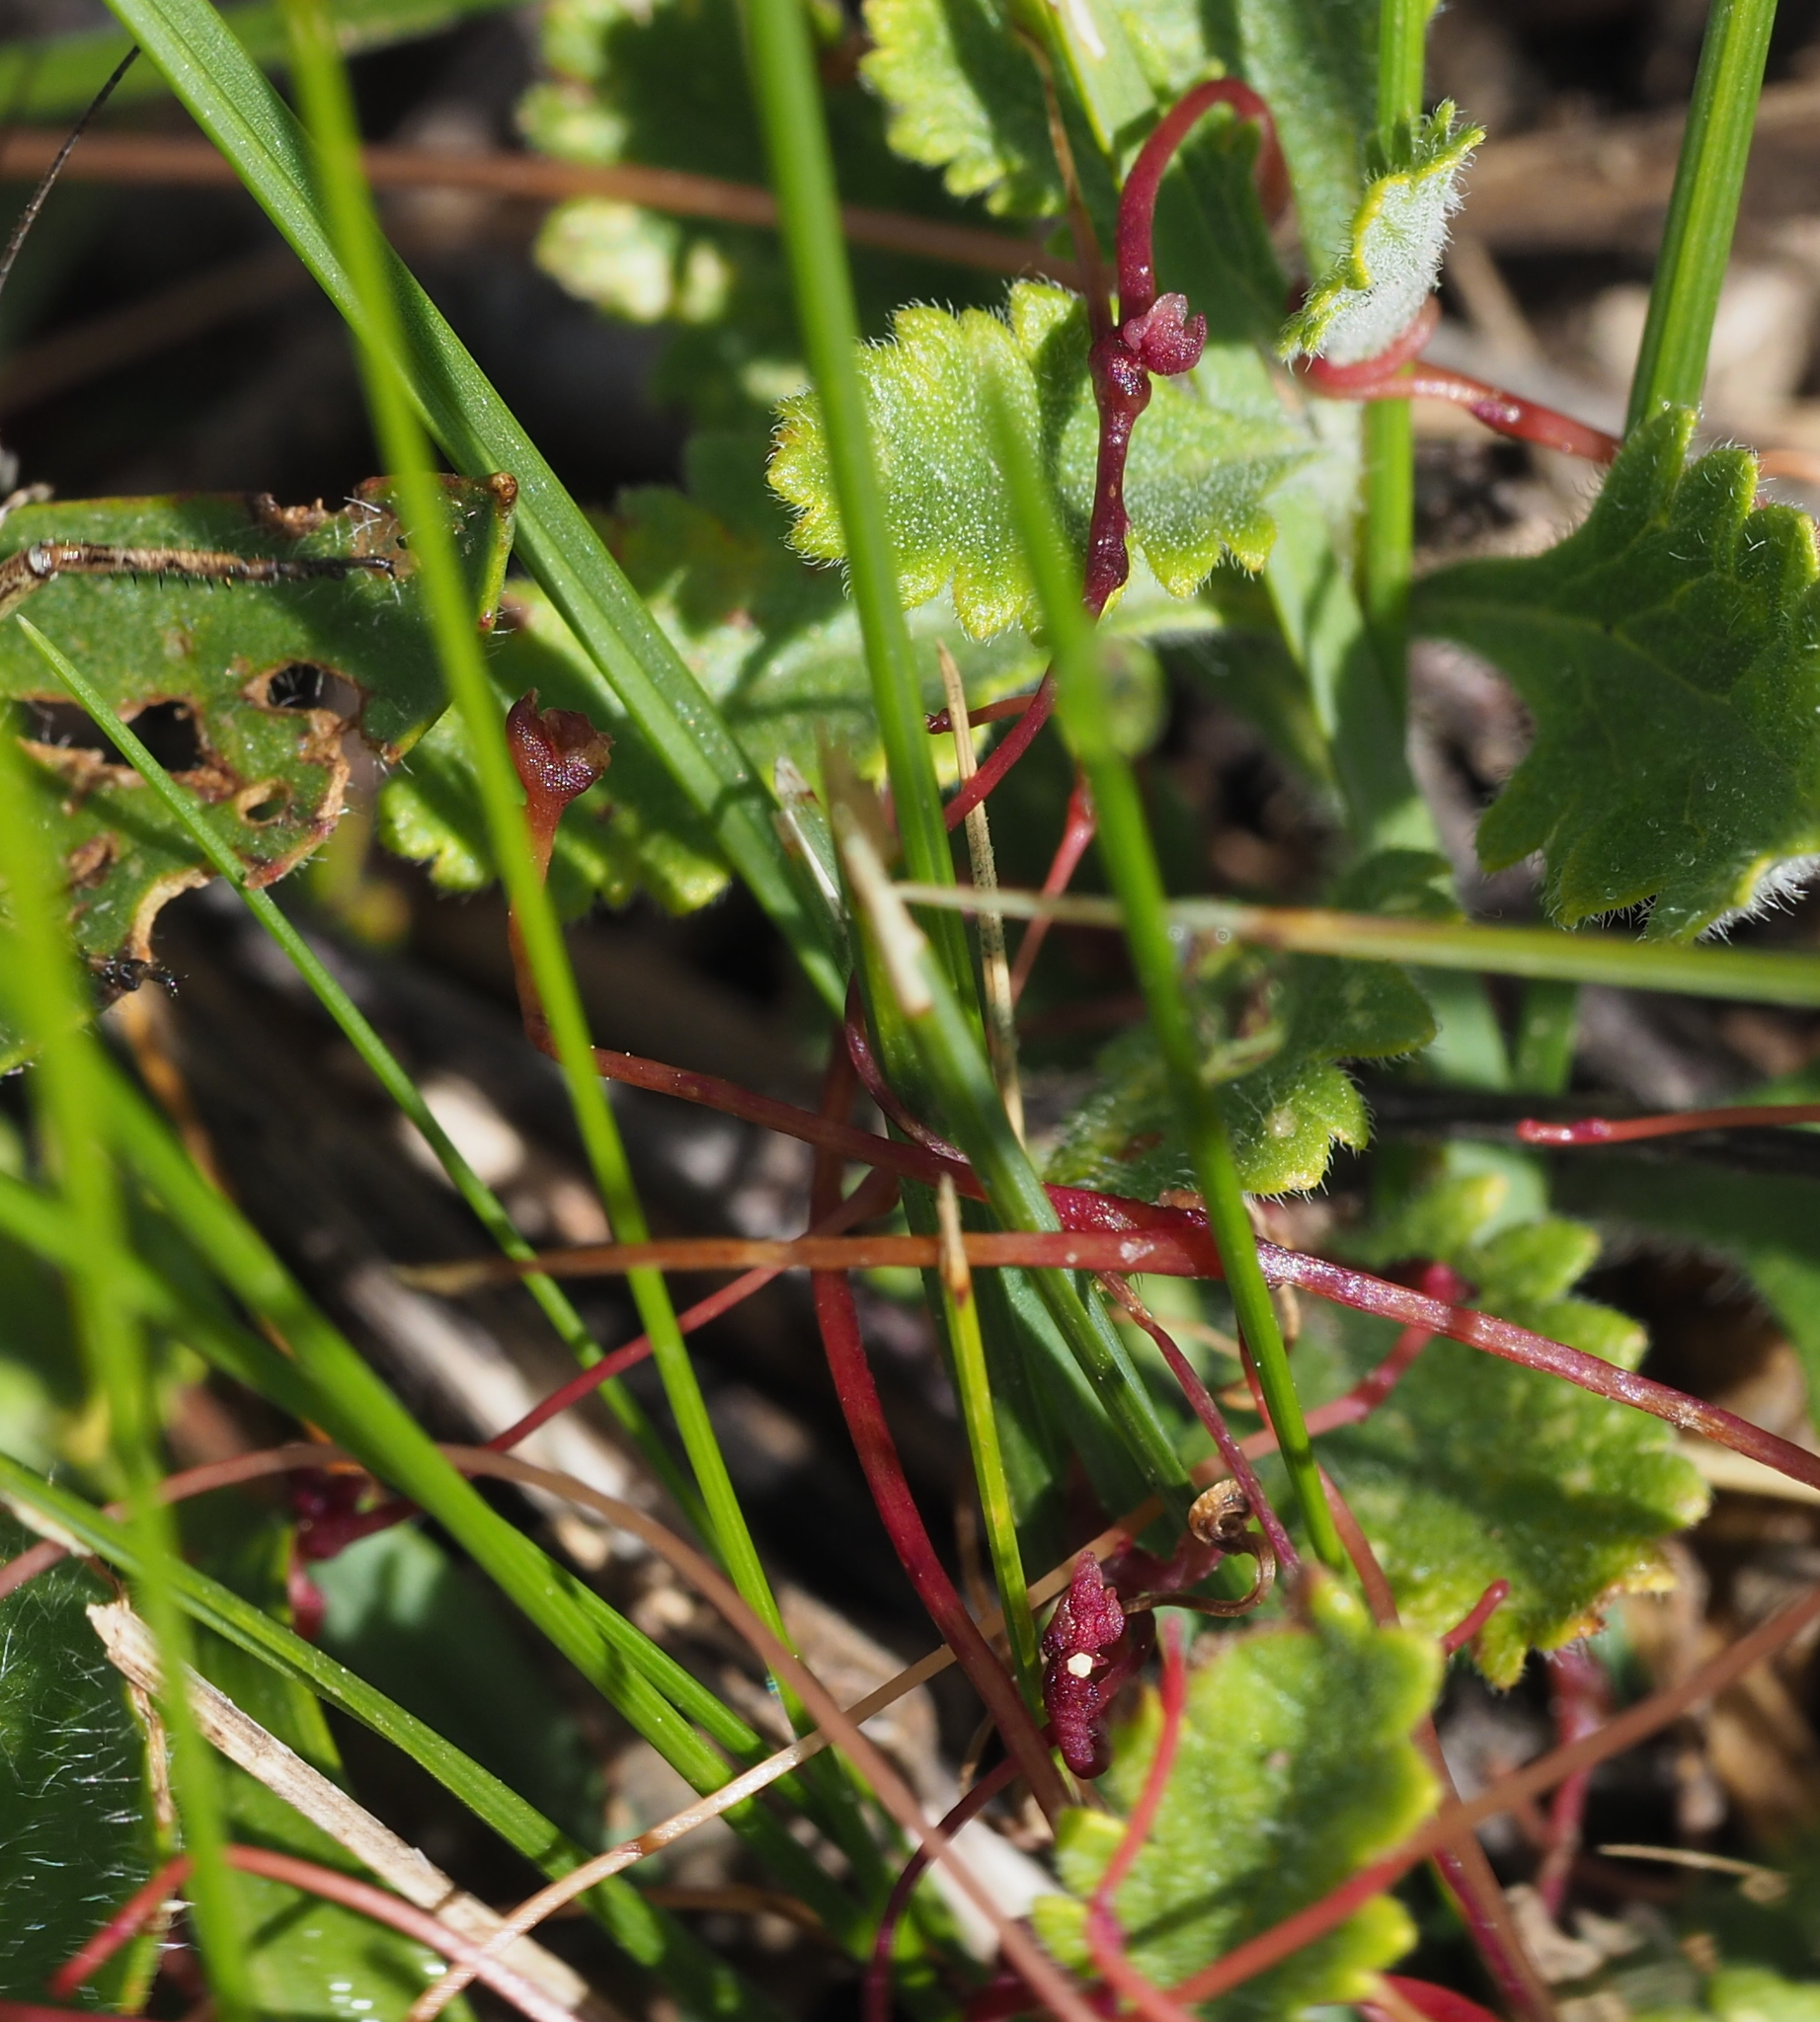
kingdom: Plantae
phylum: Tracheophyta
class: Magnoliopsida
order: Solanales
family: Convolvulaceae
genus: Cuscuta
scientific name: Cuscuta epithymum
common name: Clover dodder
